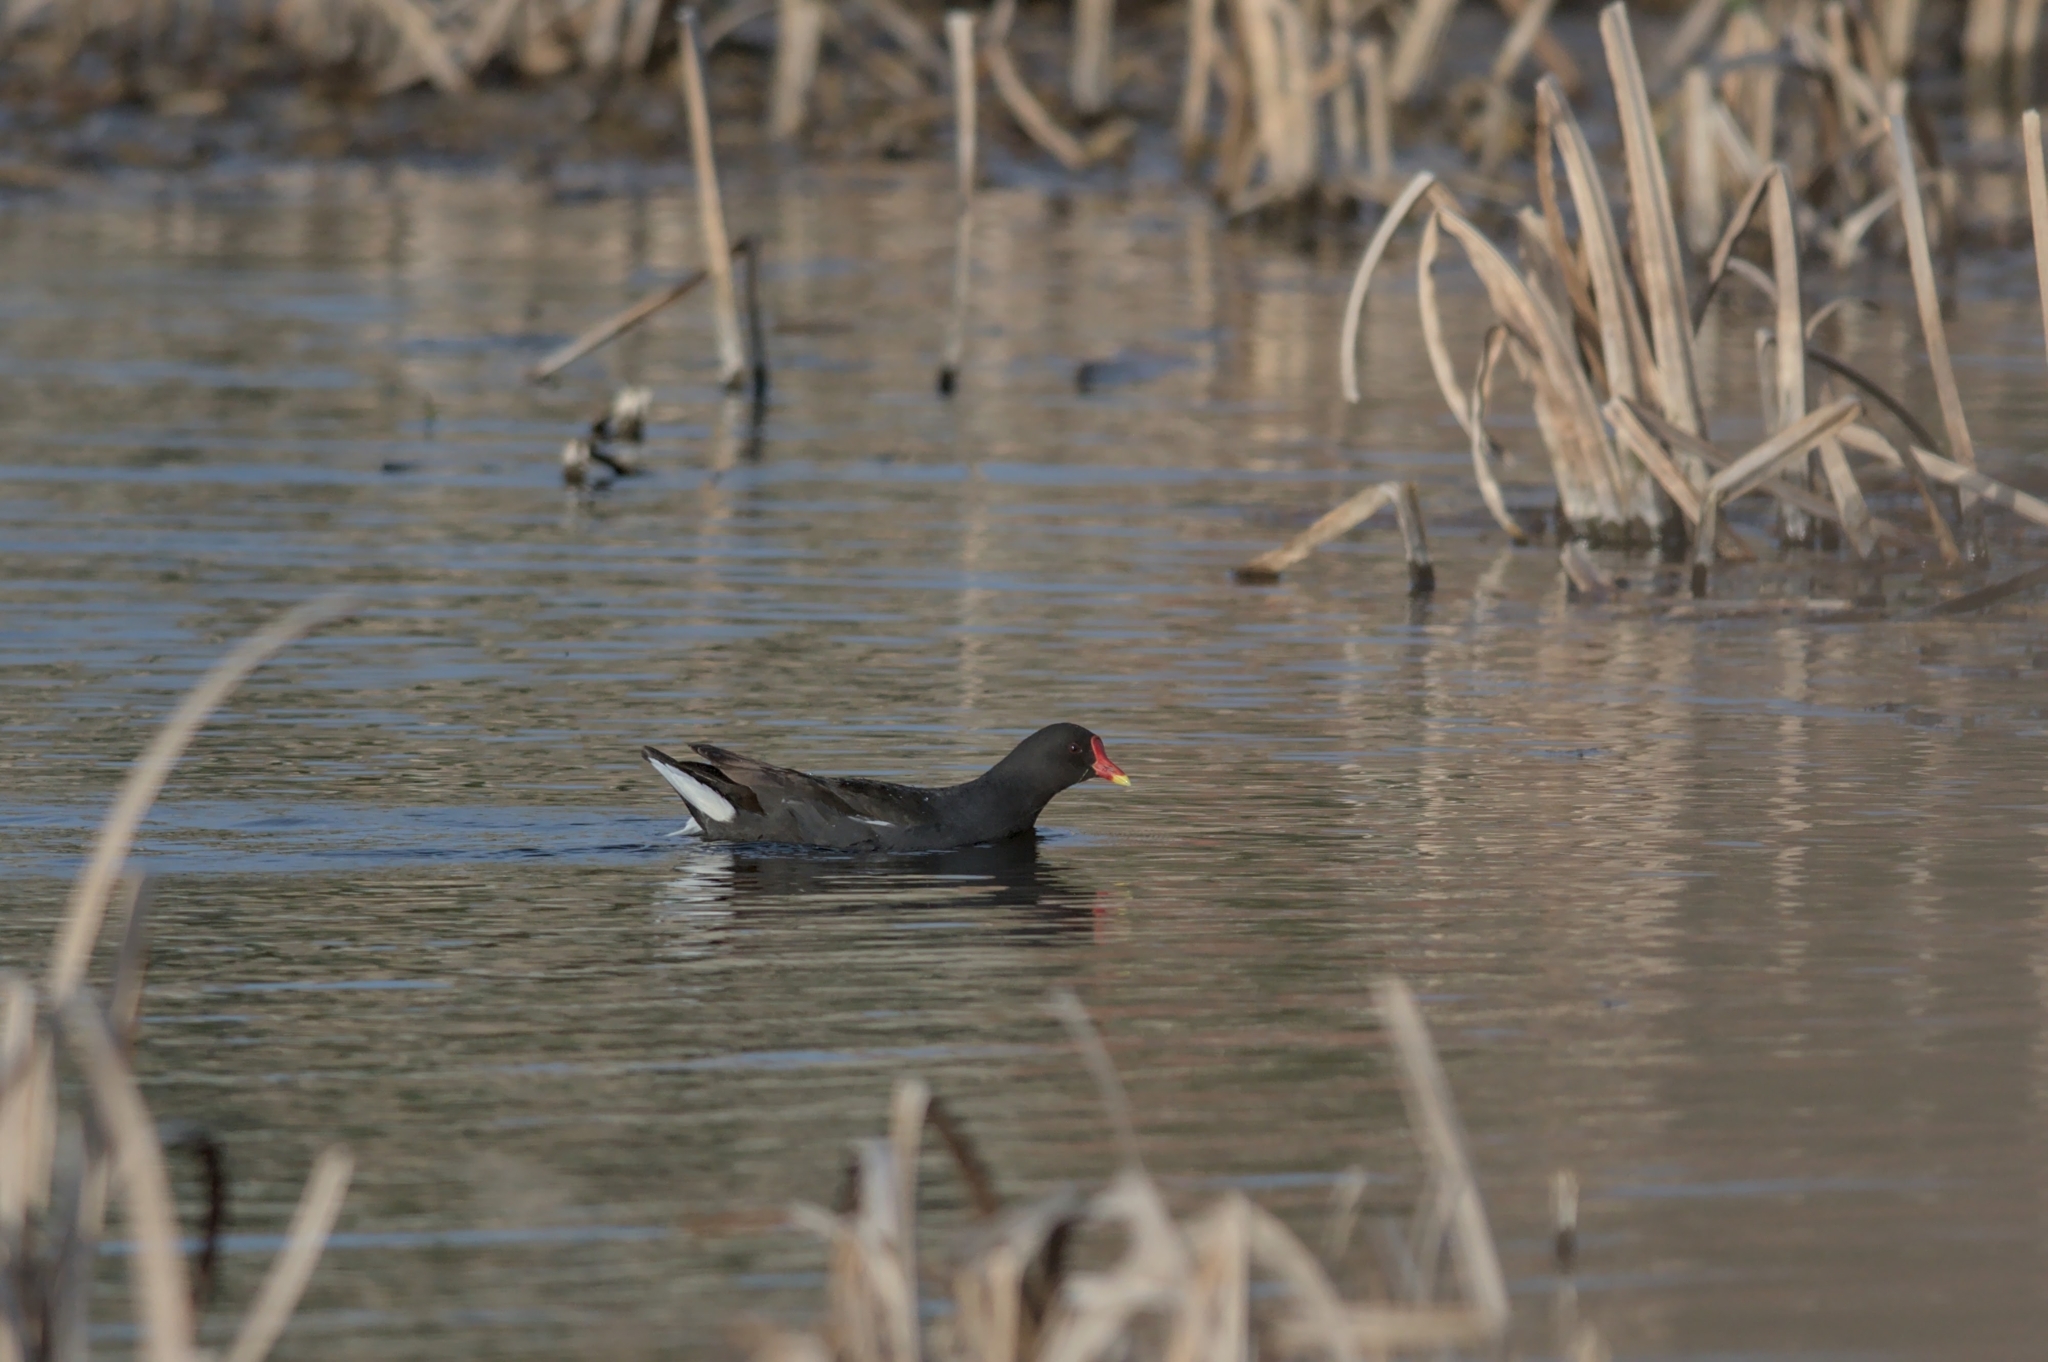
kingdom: Animalia
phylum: Chordata
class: Aves
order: Gruiformes
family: Rallidae
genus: Gallinula
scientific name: Gallinula chloropus
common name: Common moorhen
